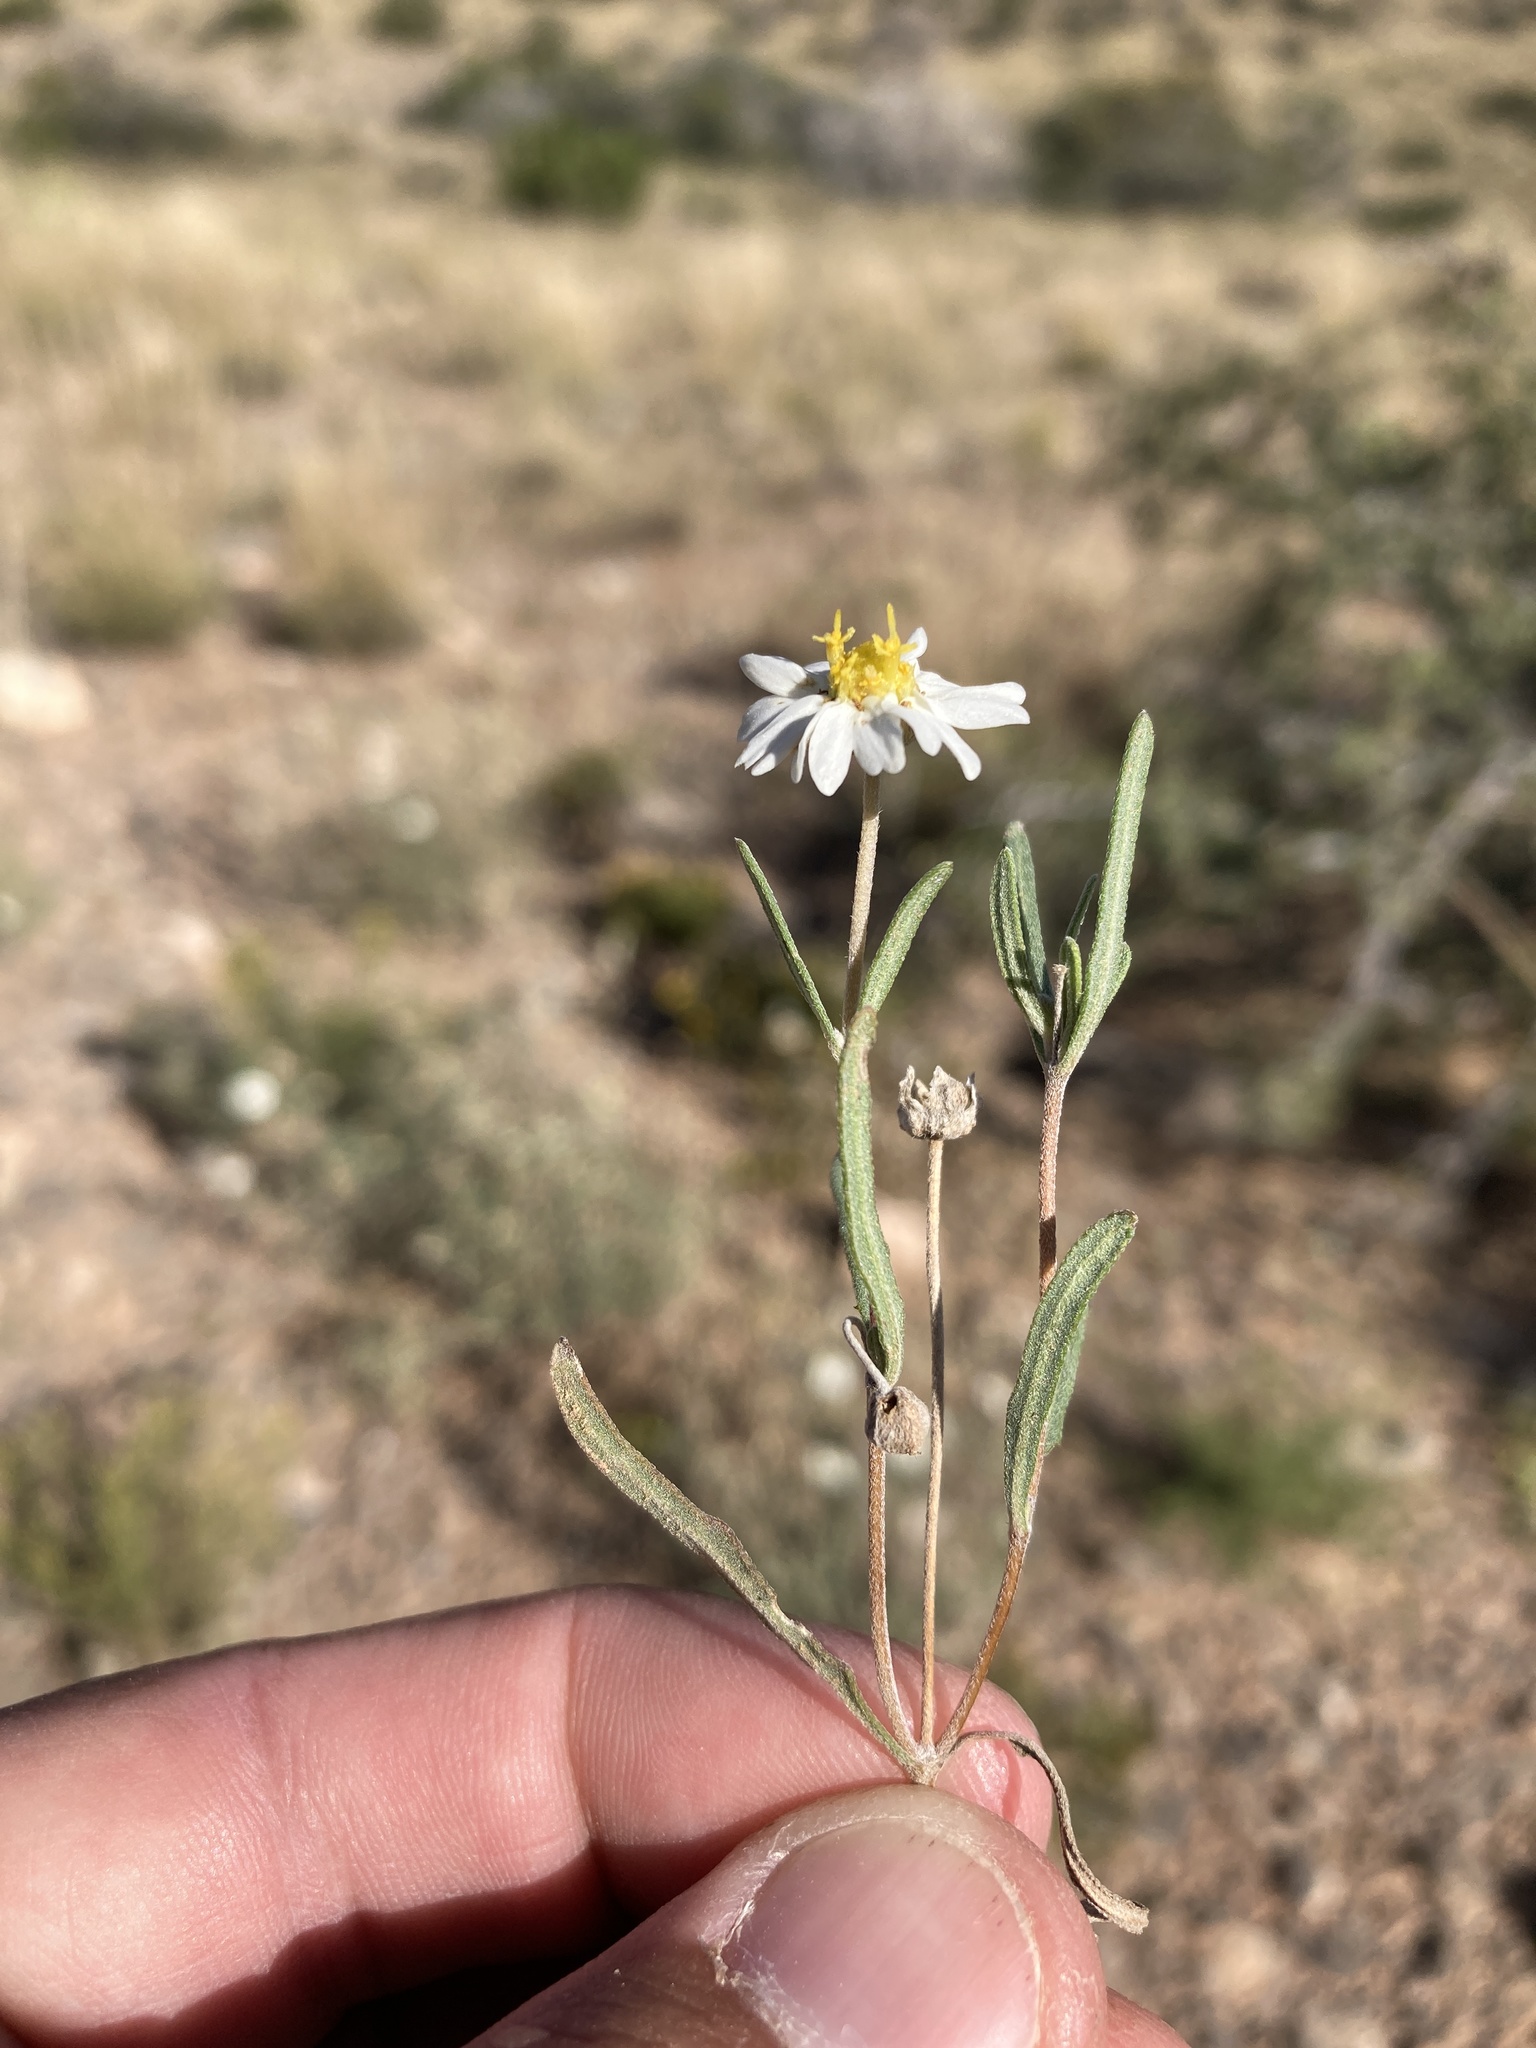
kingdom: Plantae
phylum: Tracheophyta
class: Magnoliopsida
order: Asterales
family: Asteraceae
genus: Melampodium
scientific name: Melampodium leucanthum
